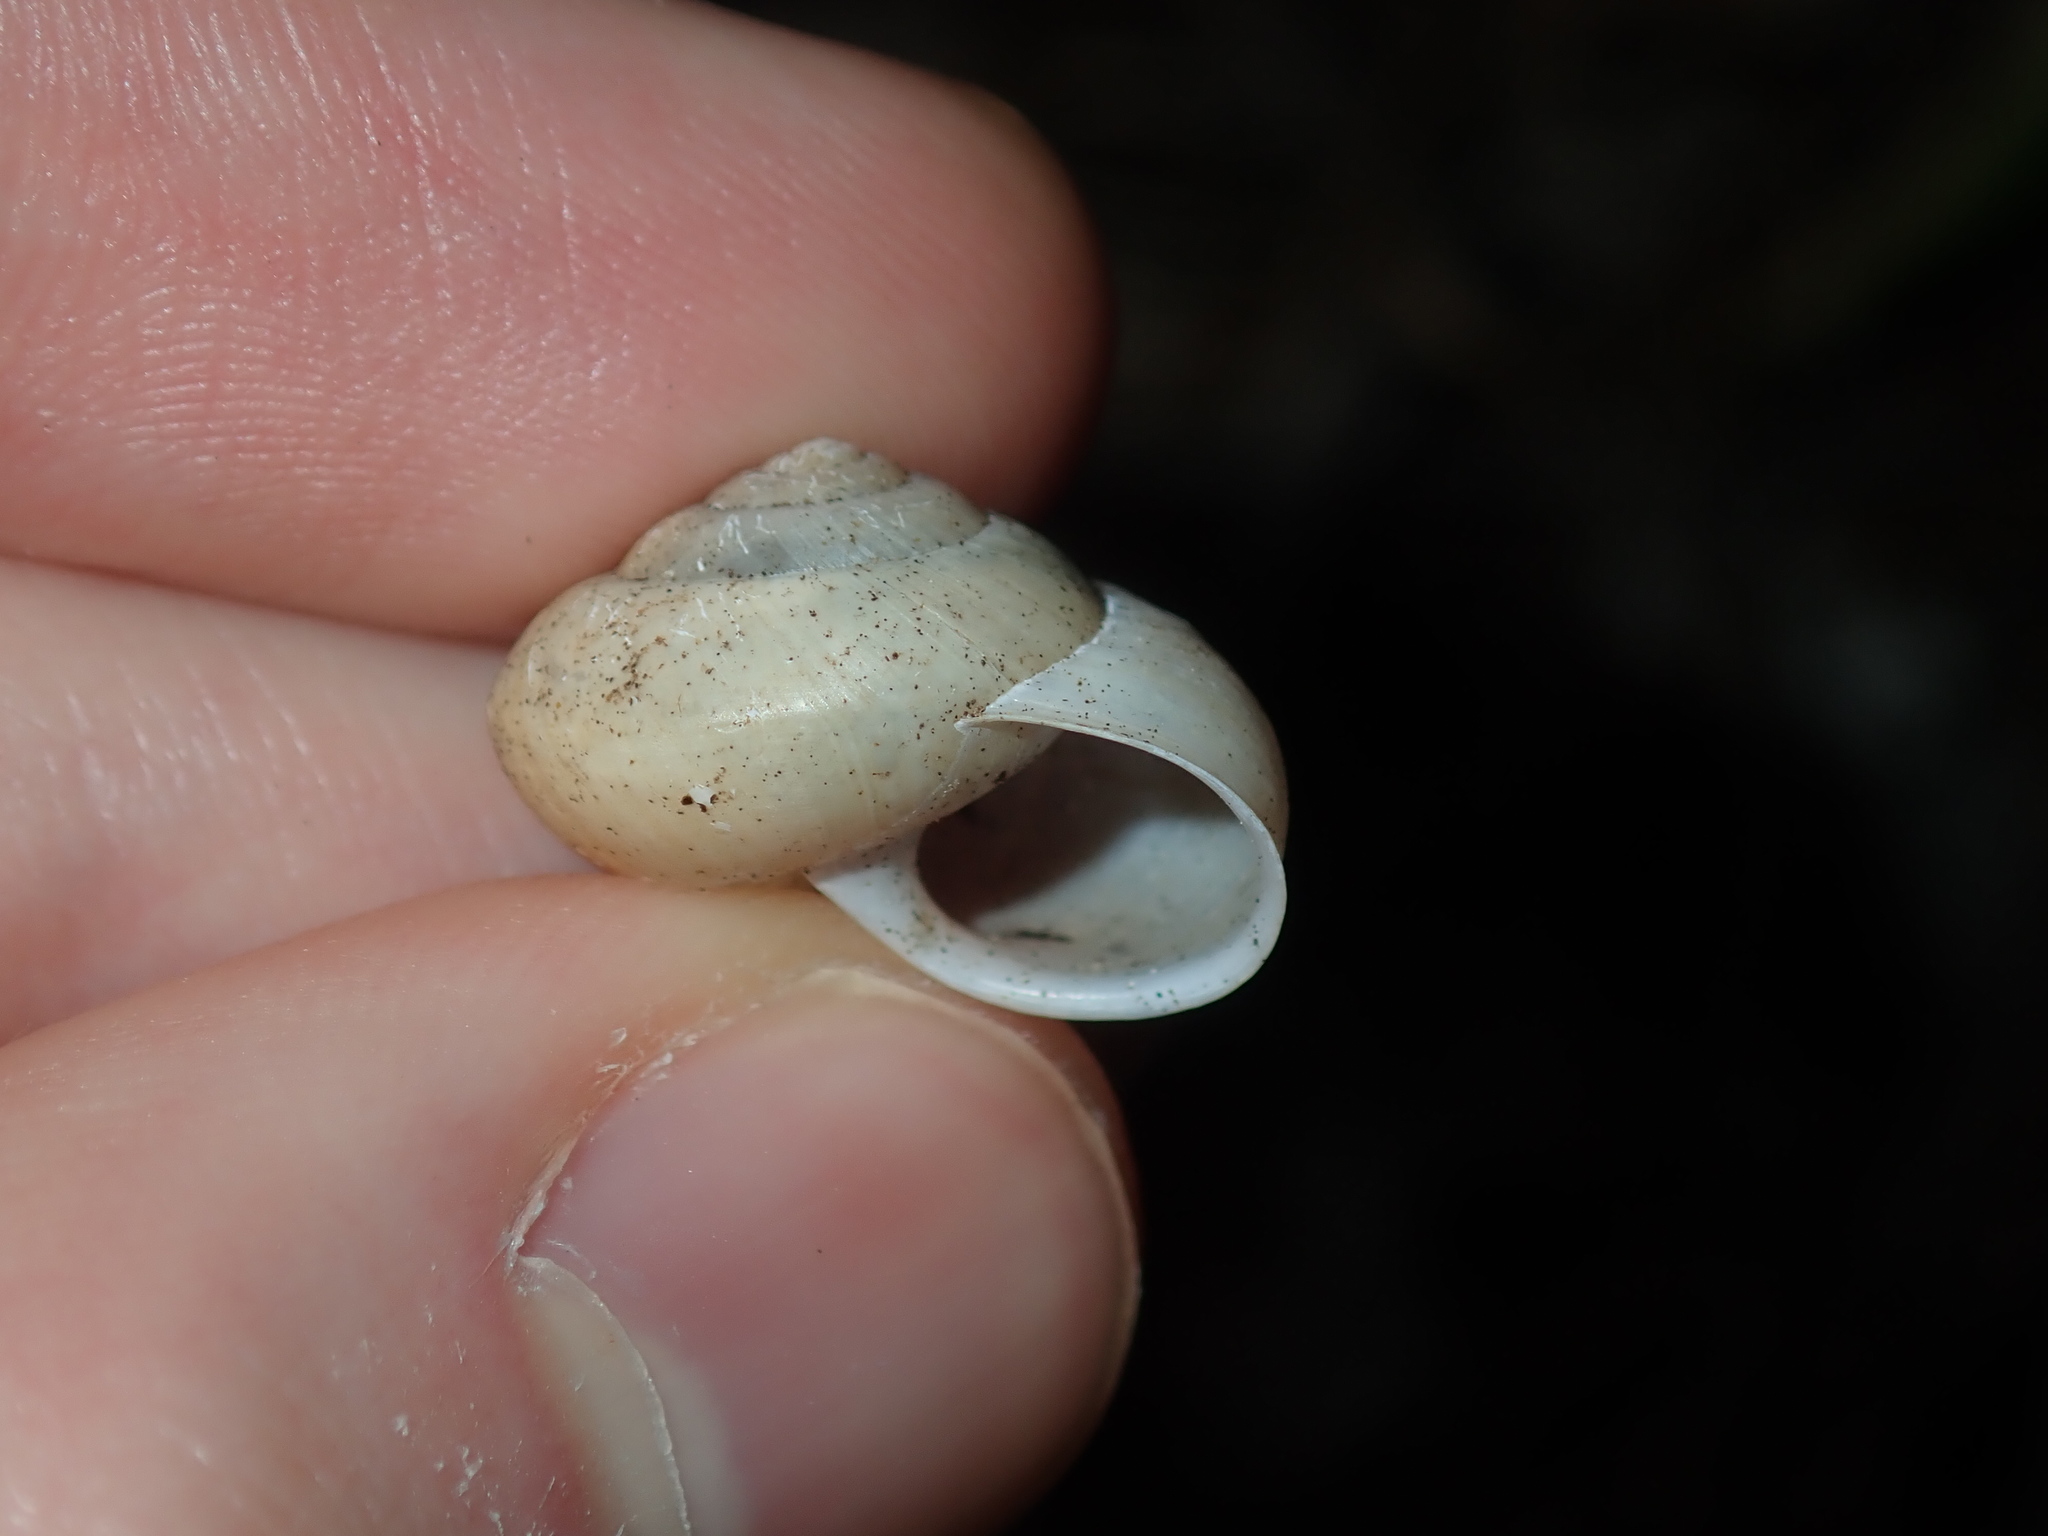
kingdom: Animalia
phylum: Mollusca
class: Gastropoda
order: Stylommatophora
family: Camaenidae
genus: Bradybaena
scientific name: Bradybaena similaris
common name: Asian trampsnail
